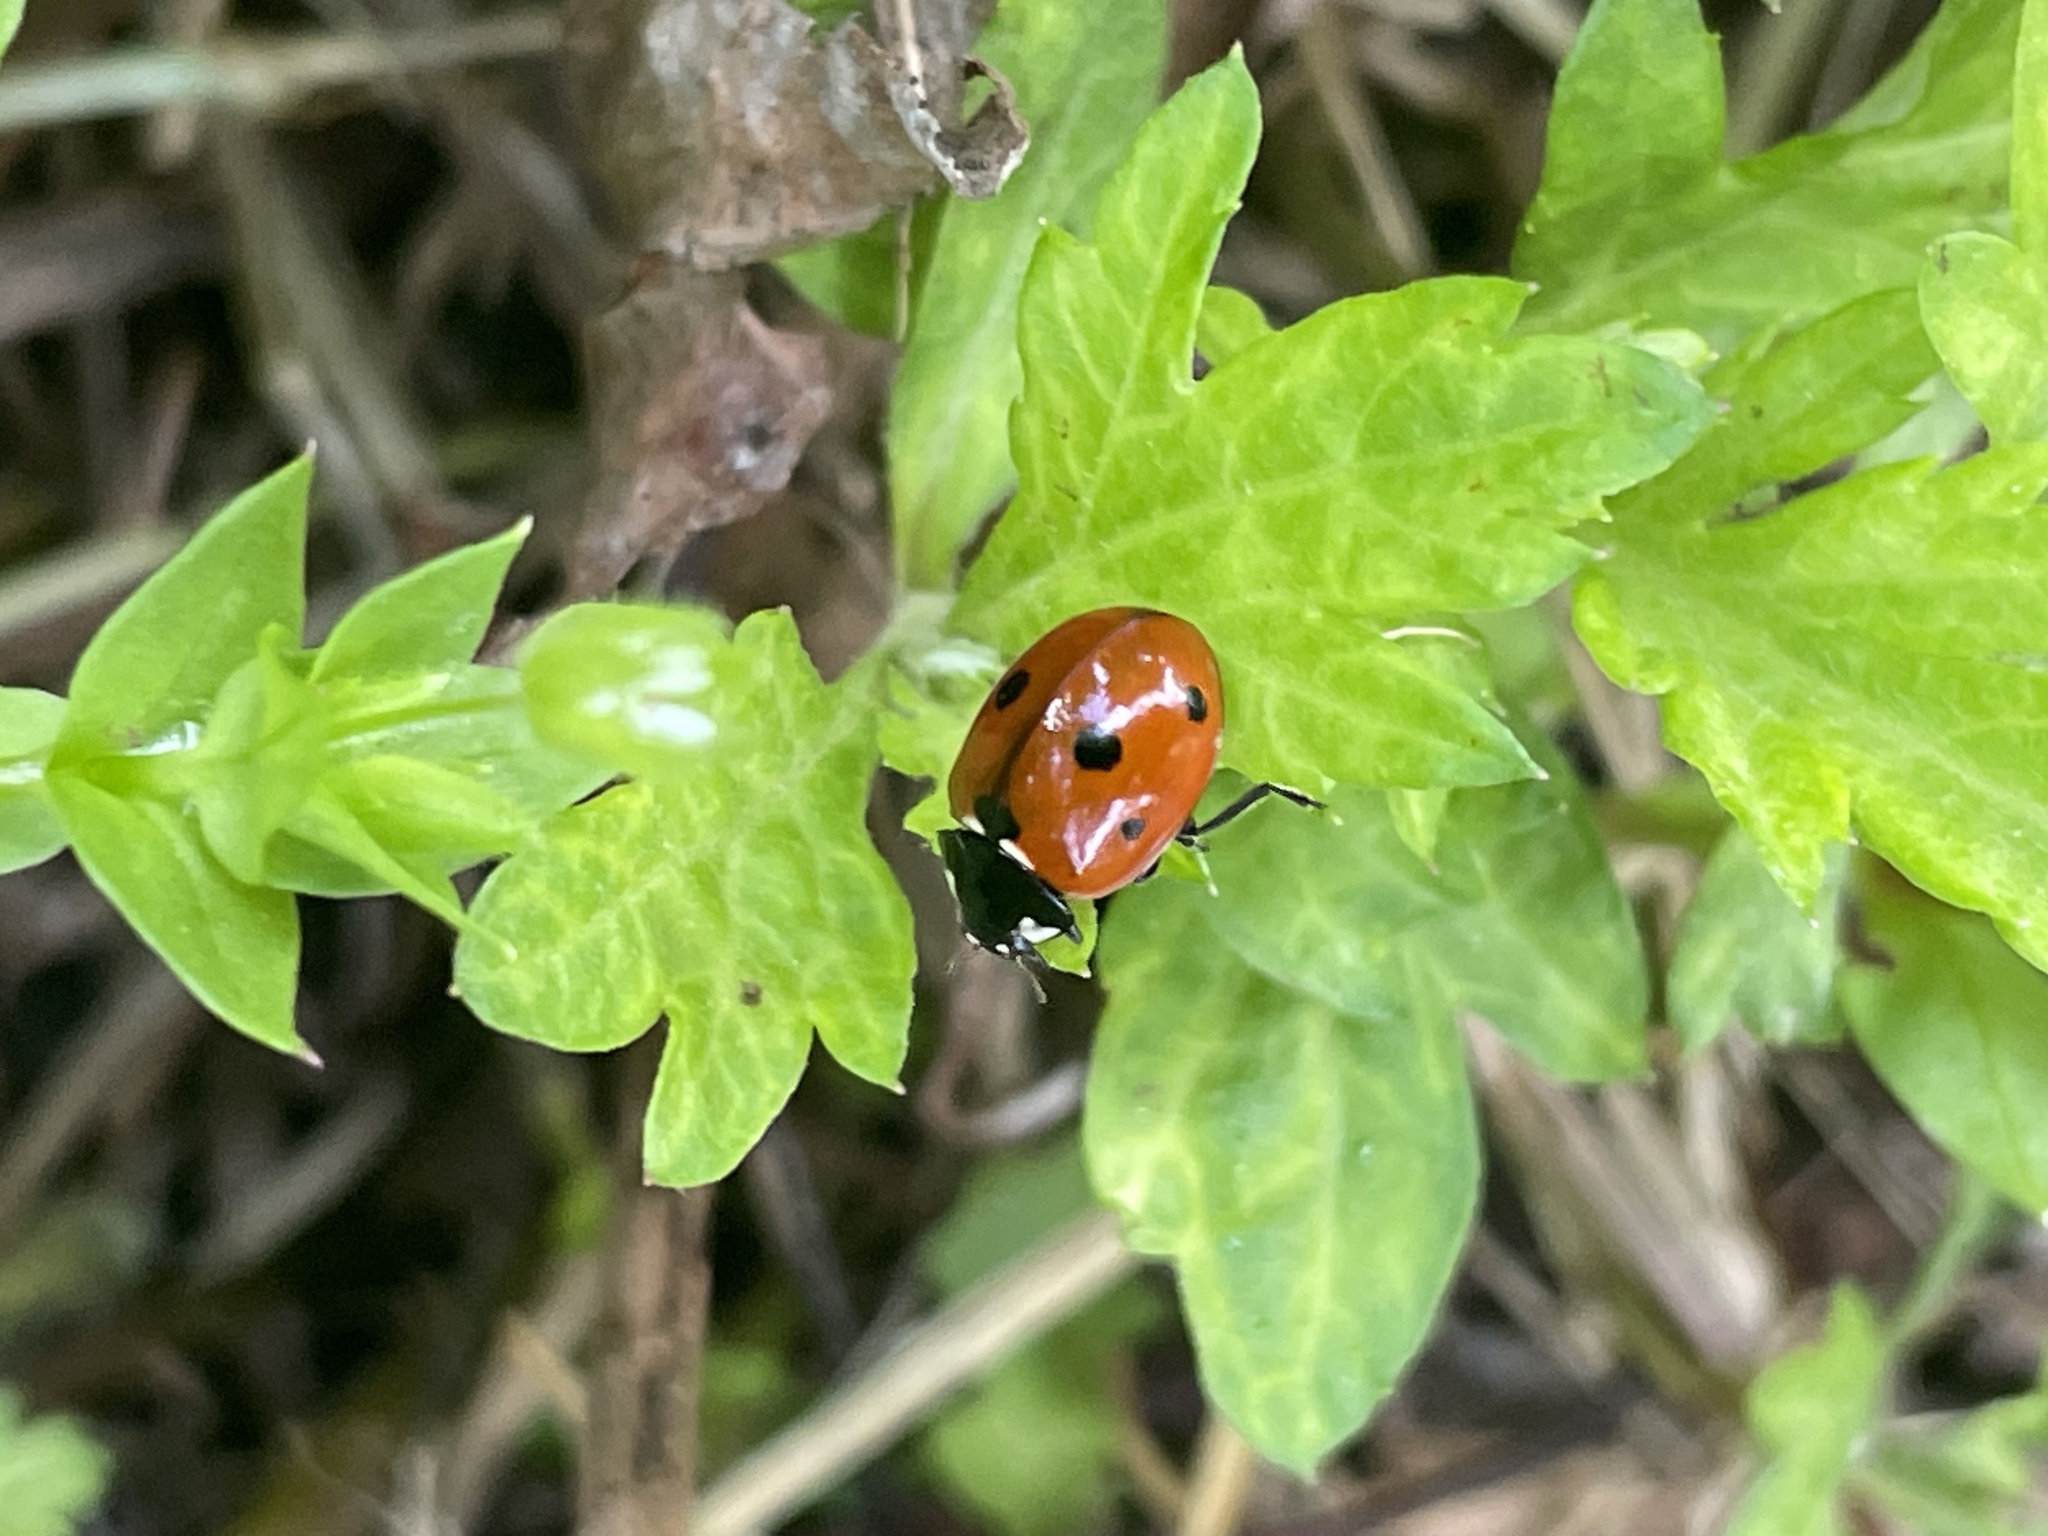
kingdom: Animalia
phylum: Arthropoda
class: Insecta
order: Coleoptera
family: Coccinellidae
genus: Coccinella
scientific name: Coccinella septempunctata
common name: Sevenspotted lady beetle
